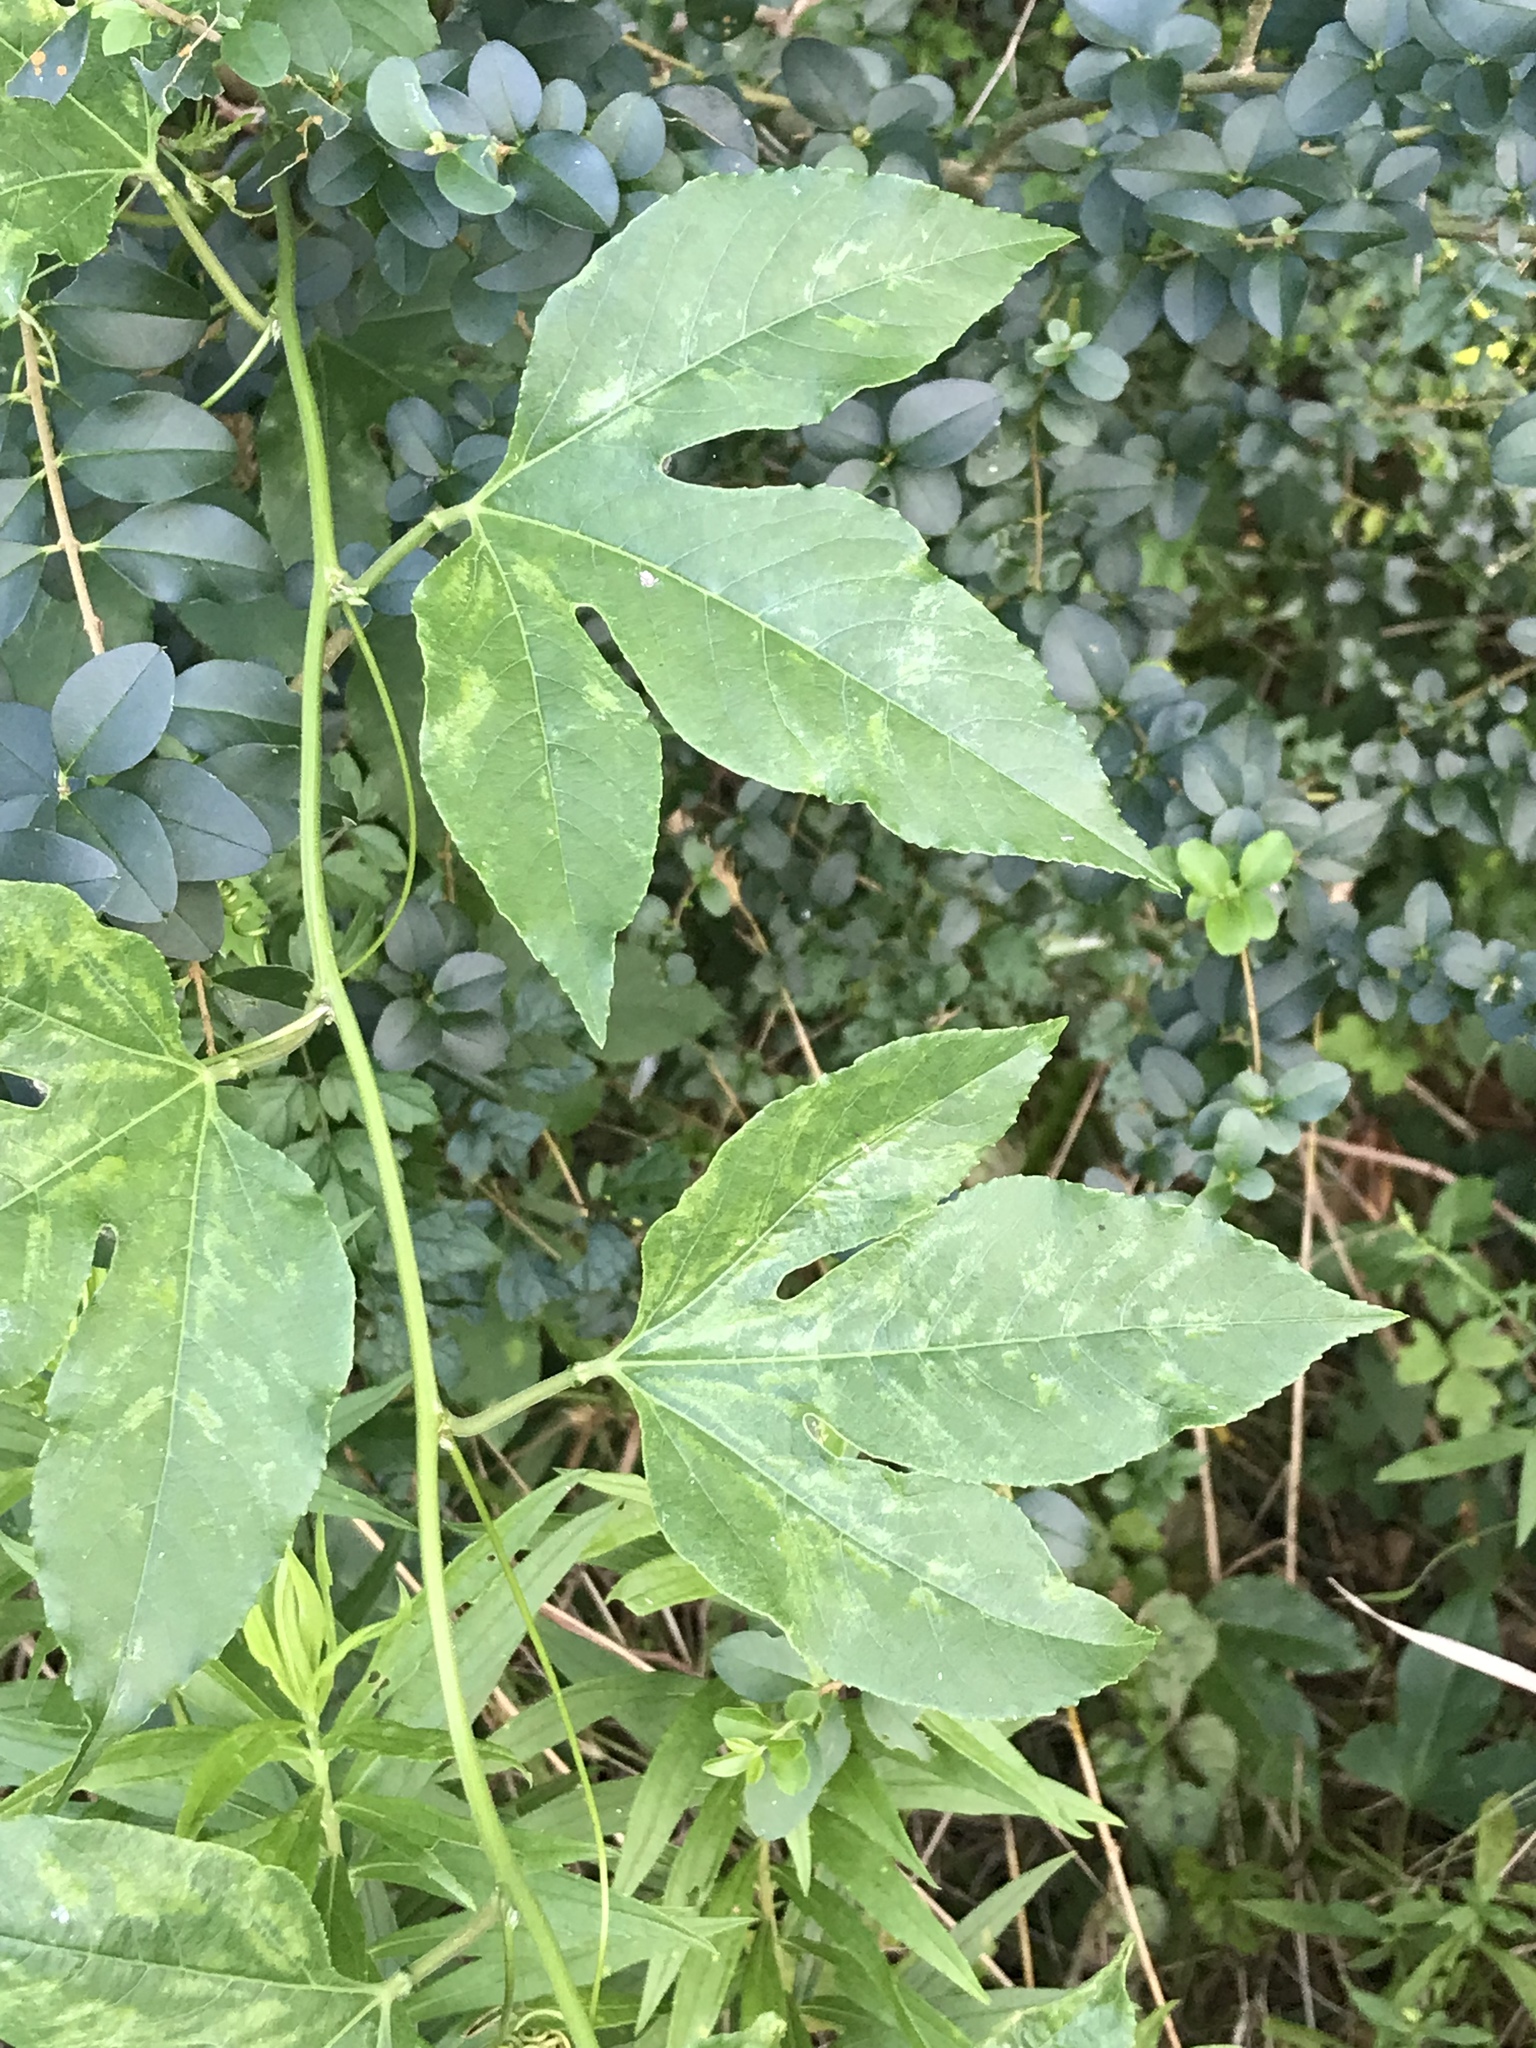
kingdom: Plantae
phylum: Tracheophyta
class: Magnoliopsida
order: Malpighiales
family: Passifloraceae
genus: Passiflora
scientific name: Passiflora incarnata
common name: Apricot-vine
